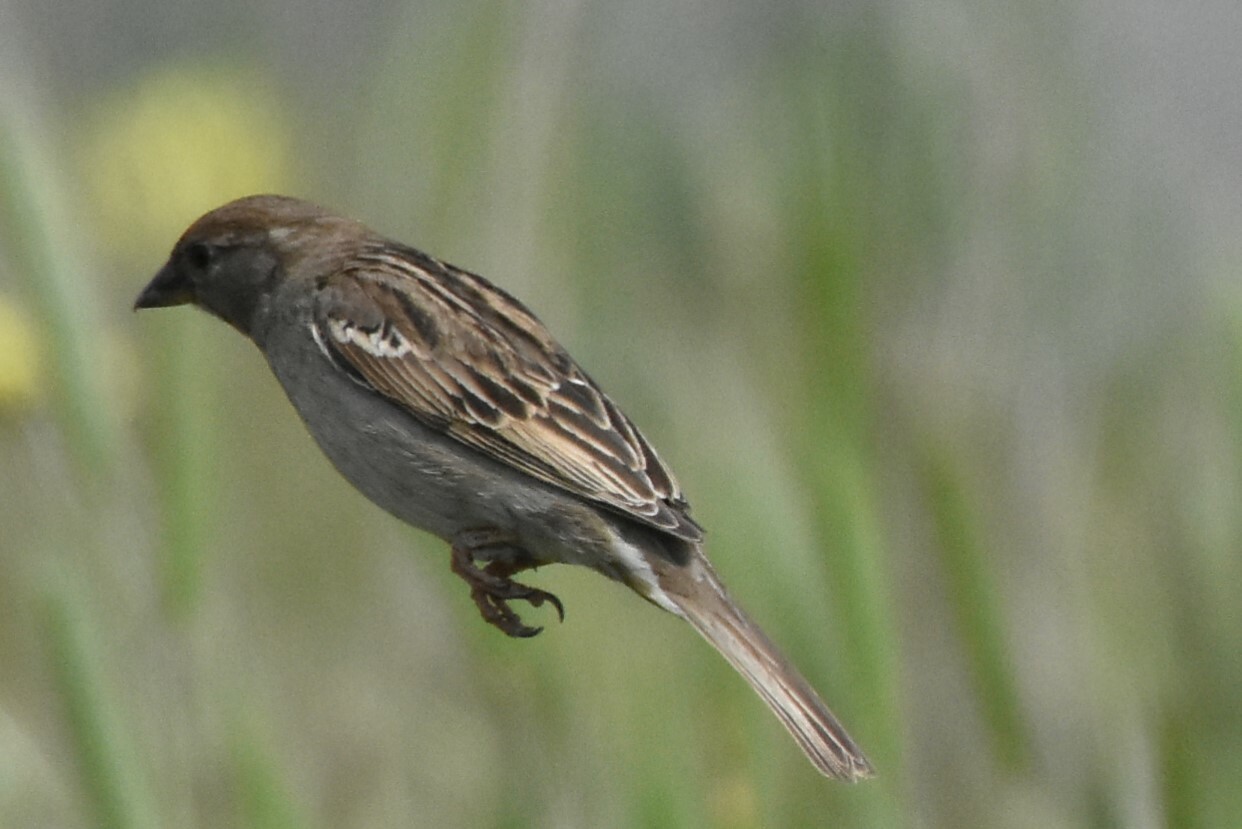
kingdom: Animalia
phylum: Chordata
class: Aves
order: Passeriformes
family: Passeridae
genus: Passer
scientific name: Passer domesticus
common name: House sparrow
